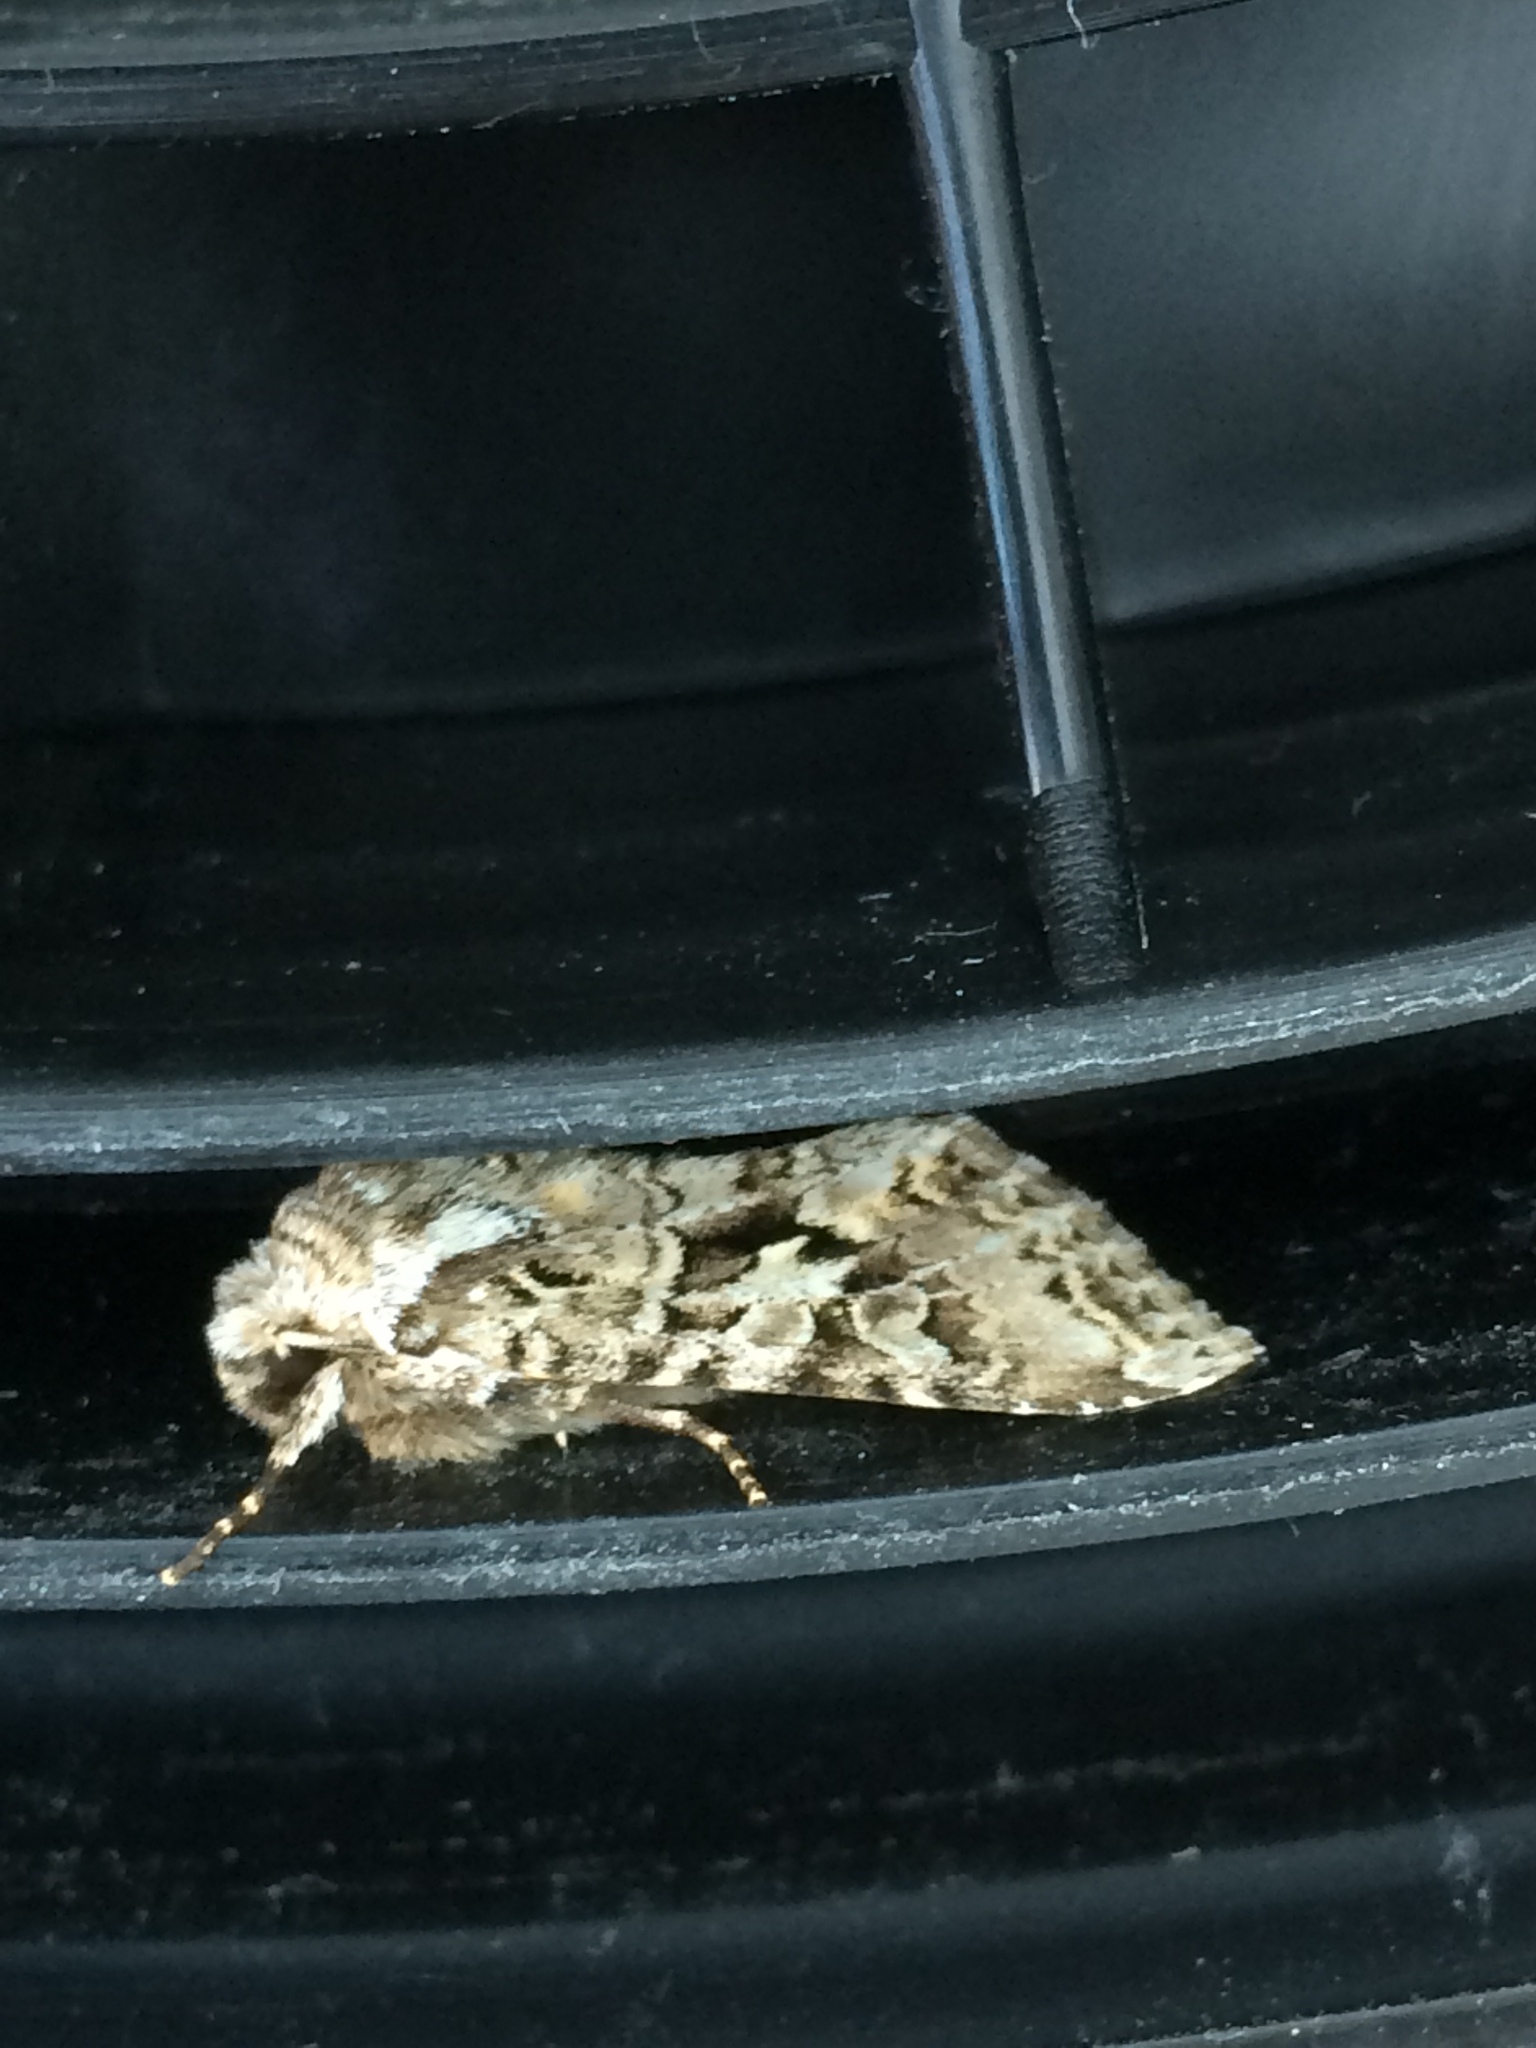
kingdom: Animalia
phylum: Arthropoda
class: Insecta
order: Lepidoptera
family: Noctuidae
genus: Hada
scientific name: Hada plebeja
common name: Shears
